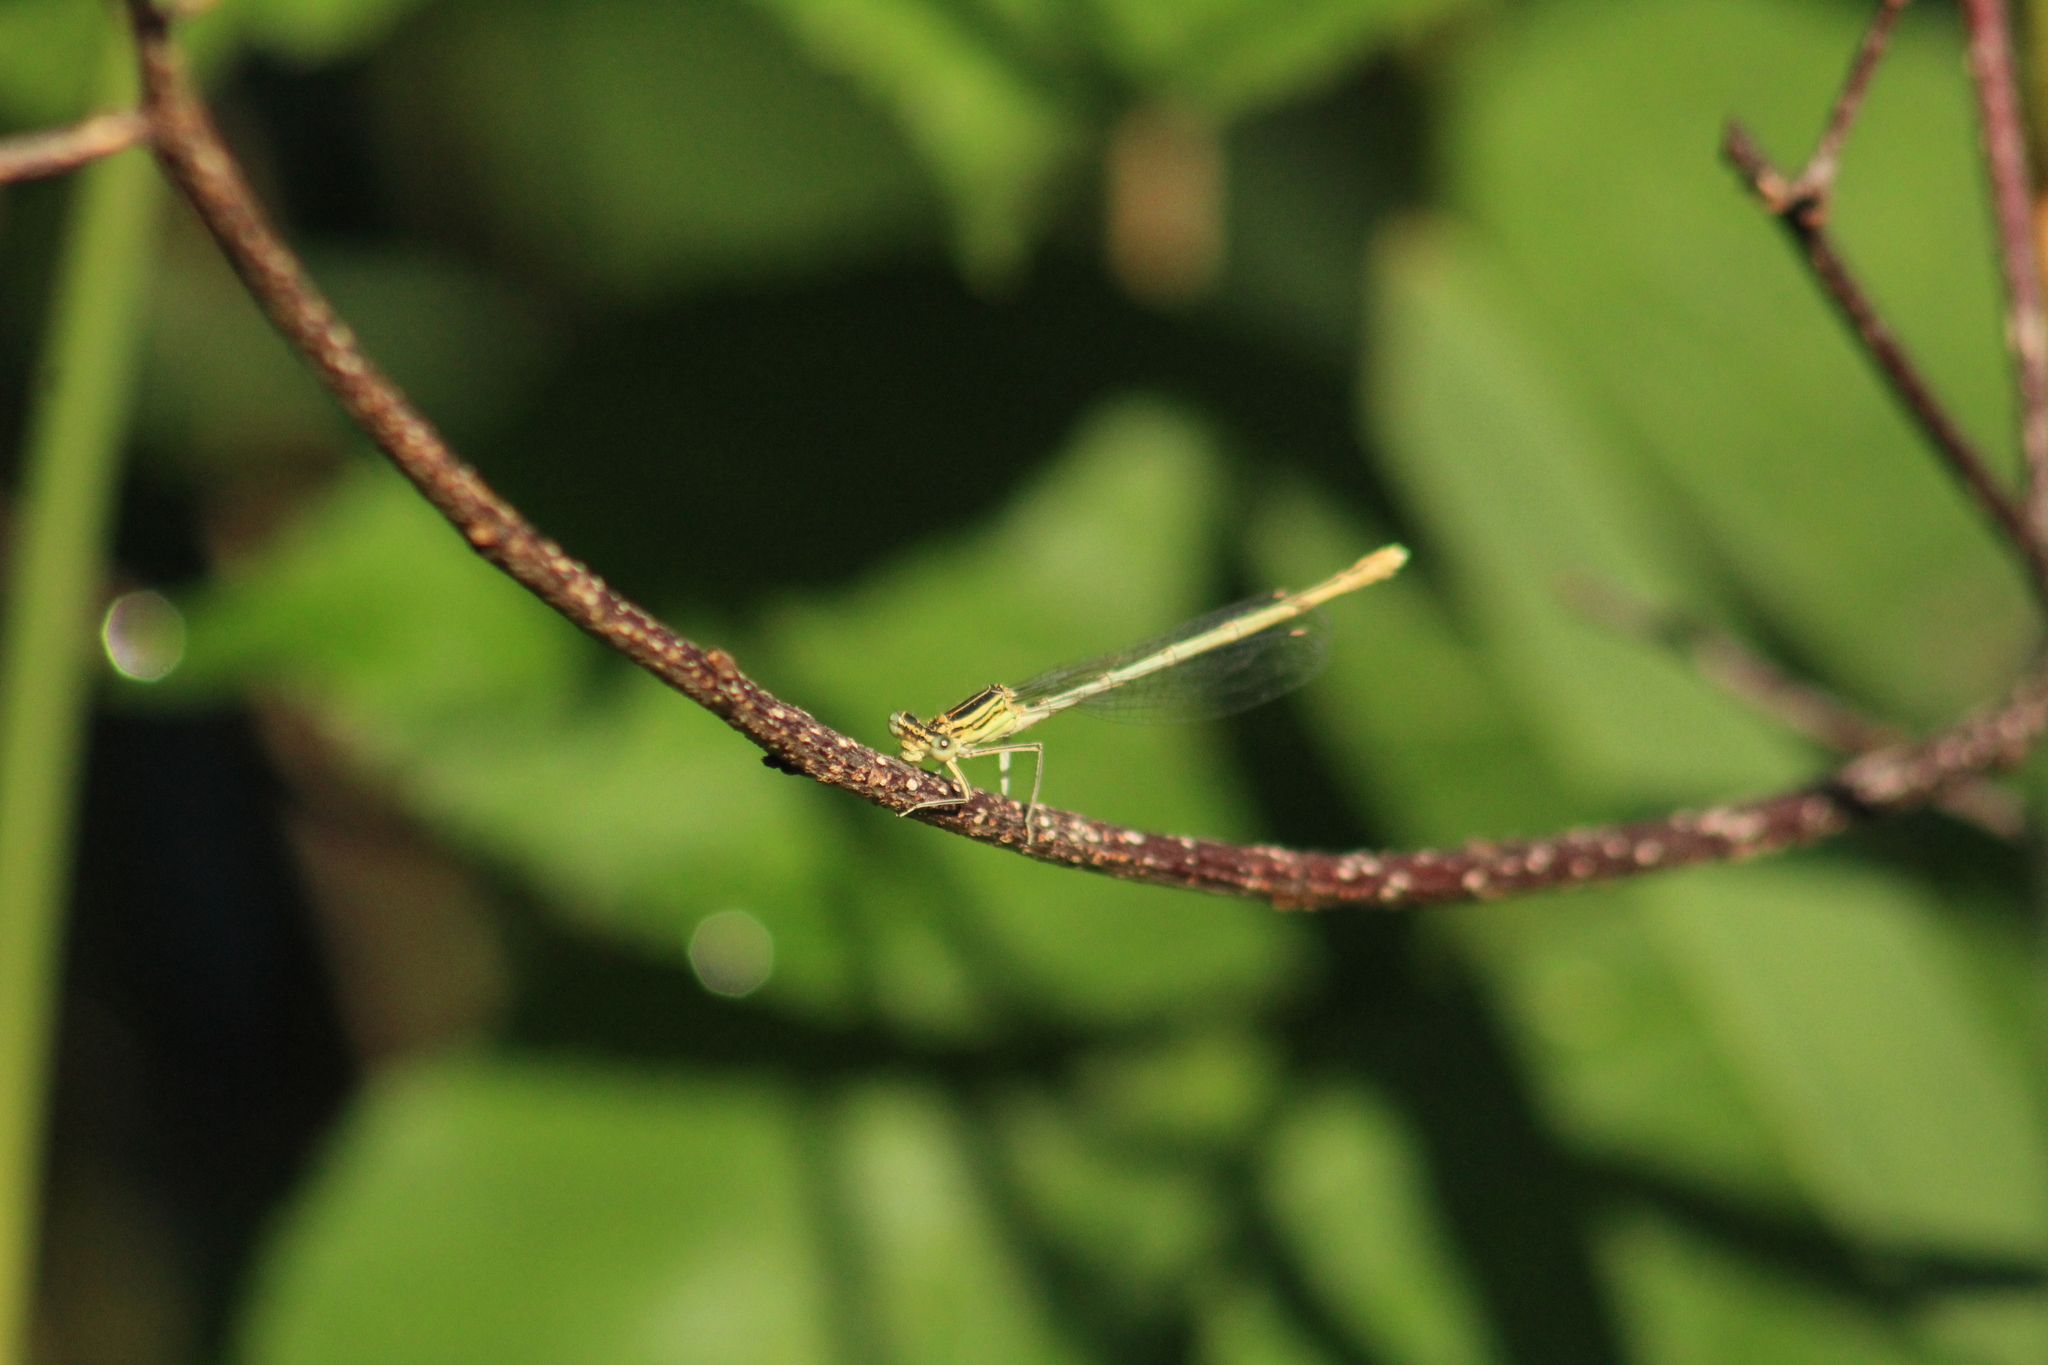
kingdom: Animalia
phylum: Arthropoda
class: Insecta
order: Odonata
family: Platycnemididae
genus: Platycnemis
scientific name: Platycnemis pennipes
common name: White-legged damselfly
